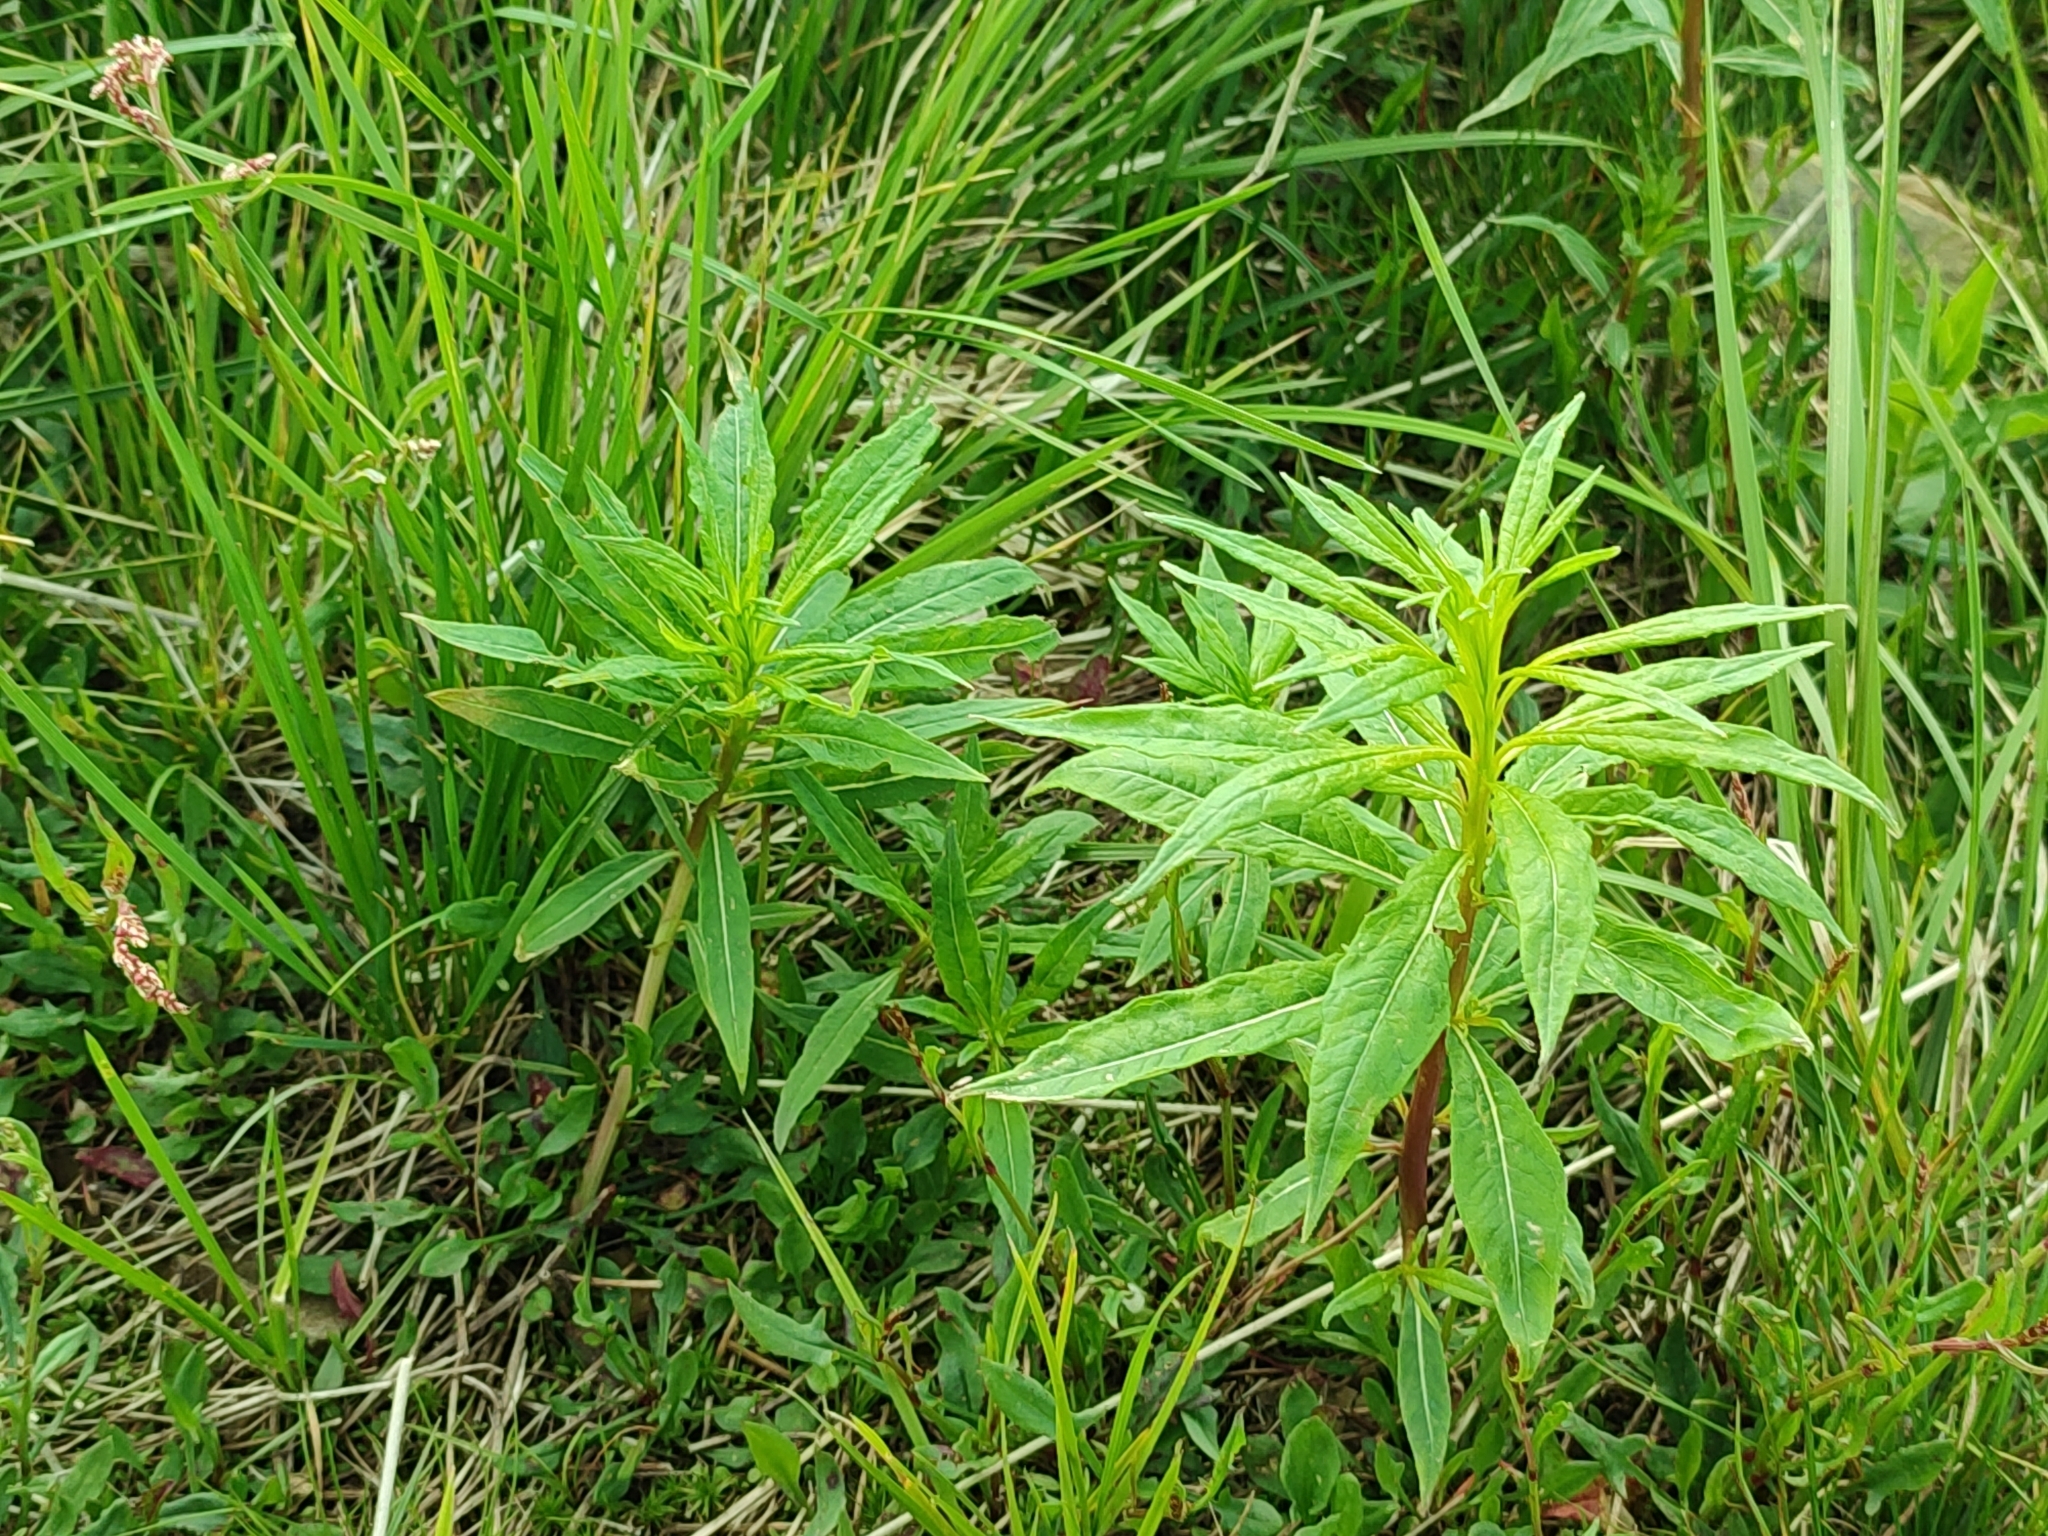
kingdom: Plantae
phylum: Tracheophyta
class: Magnoliopsida
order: Myrtales
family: Onagraceae
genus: Chamaenerion
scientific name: Chamaenerion angustifolium
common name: Fireweed
